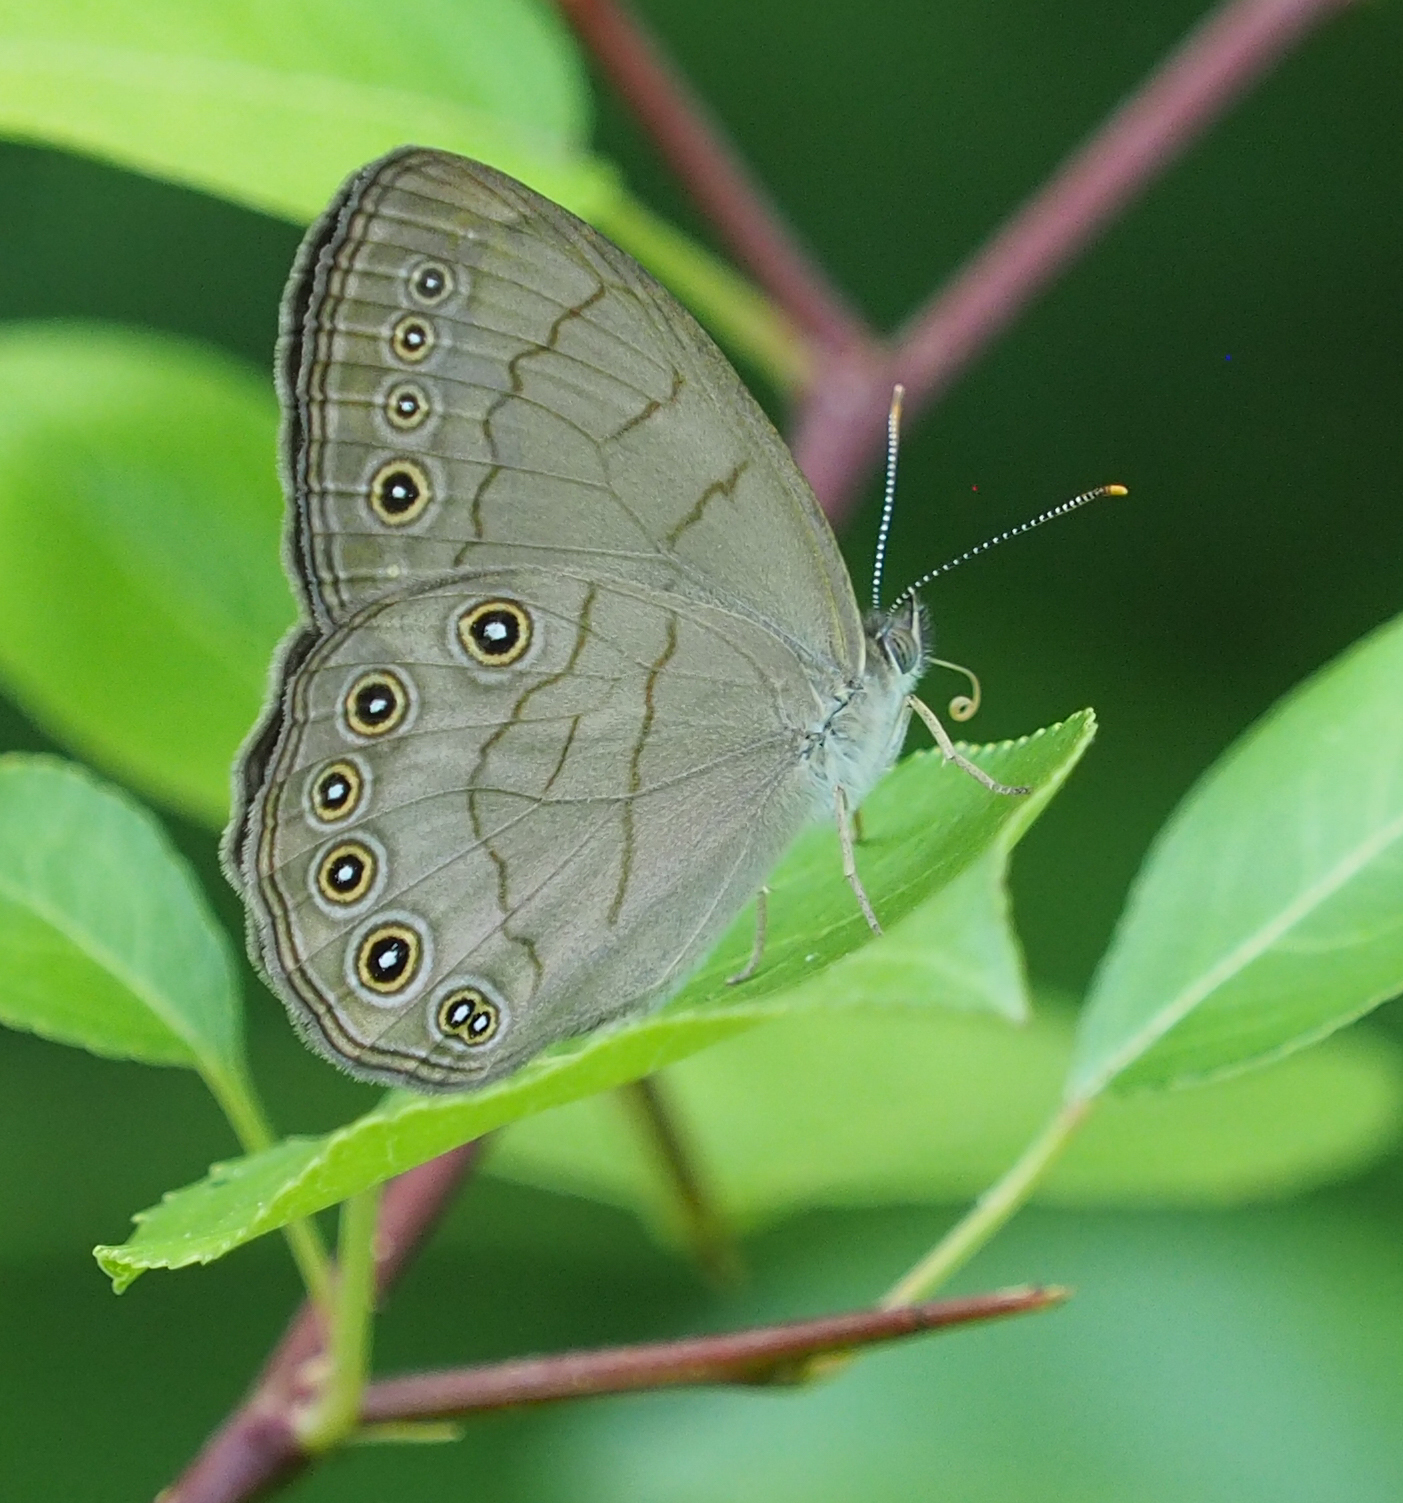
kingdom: Animalia
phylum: Arthropoda
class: Insecta
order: Lepidoptera
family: Nymphalidae
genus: Lethe
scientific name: Lethe eurydice
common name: Eyed brown
